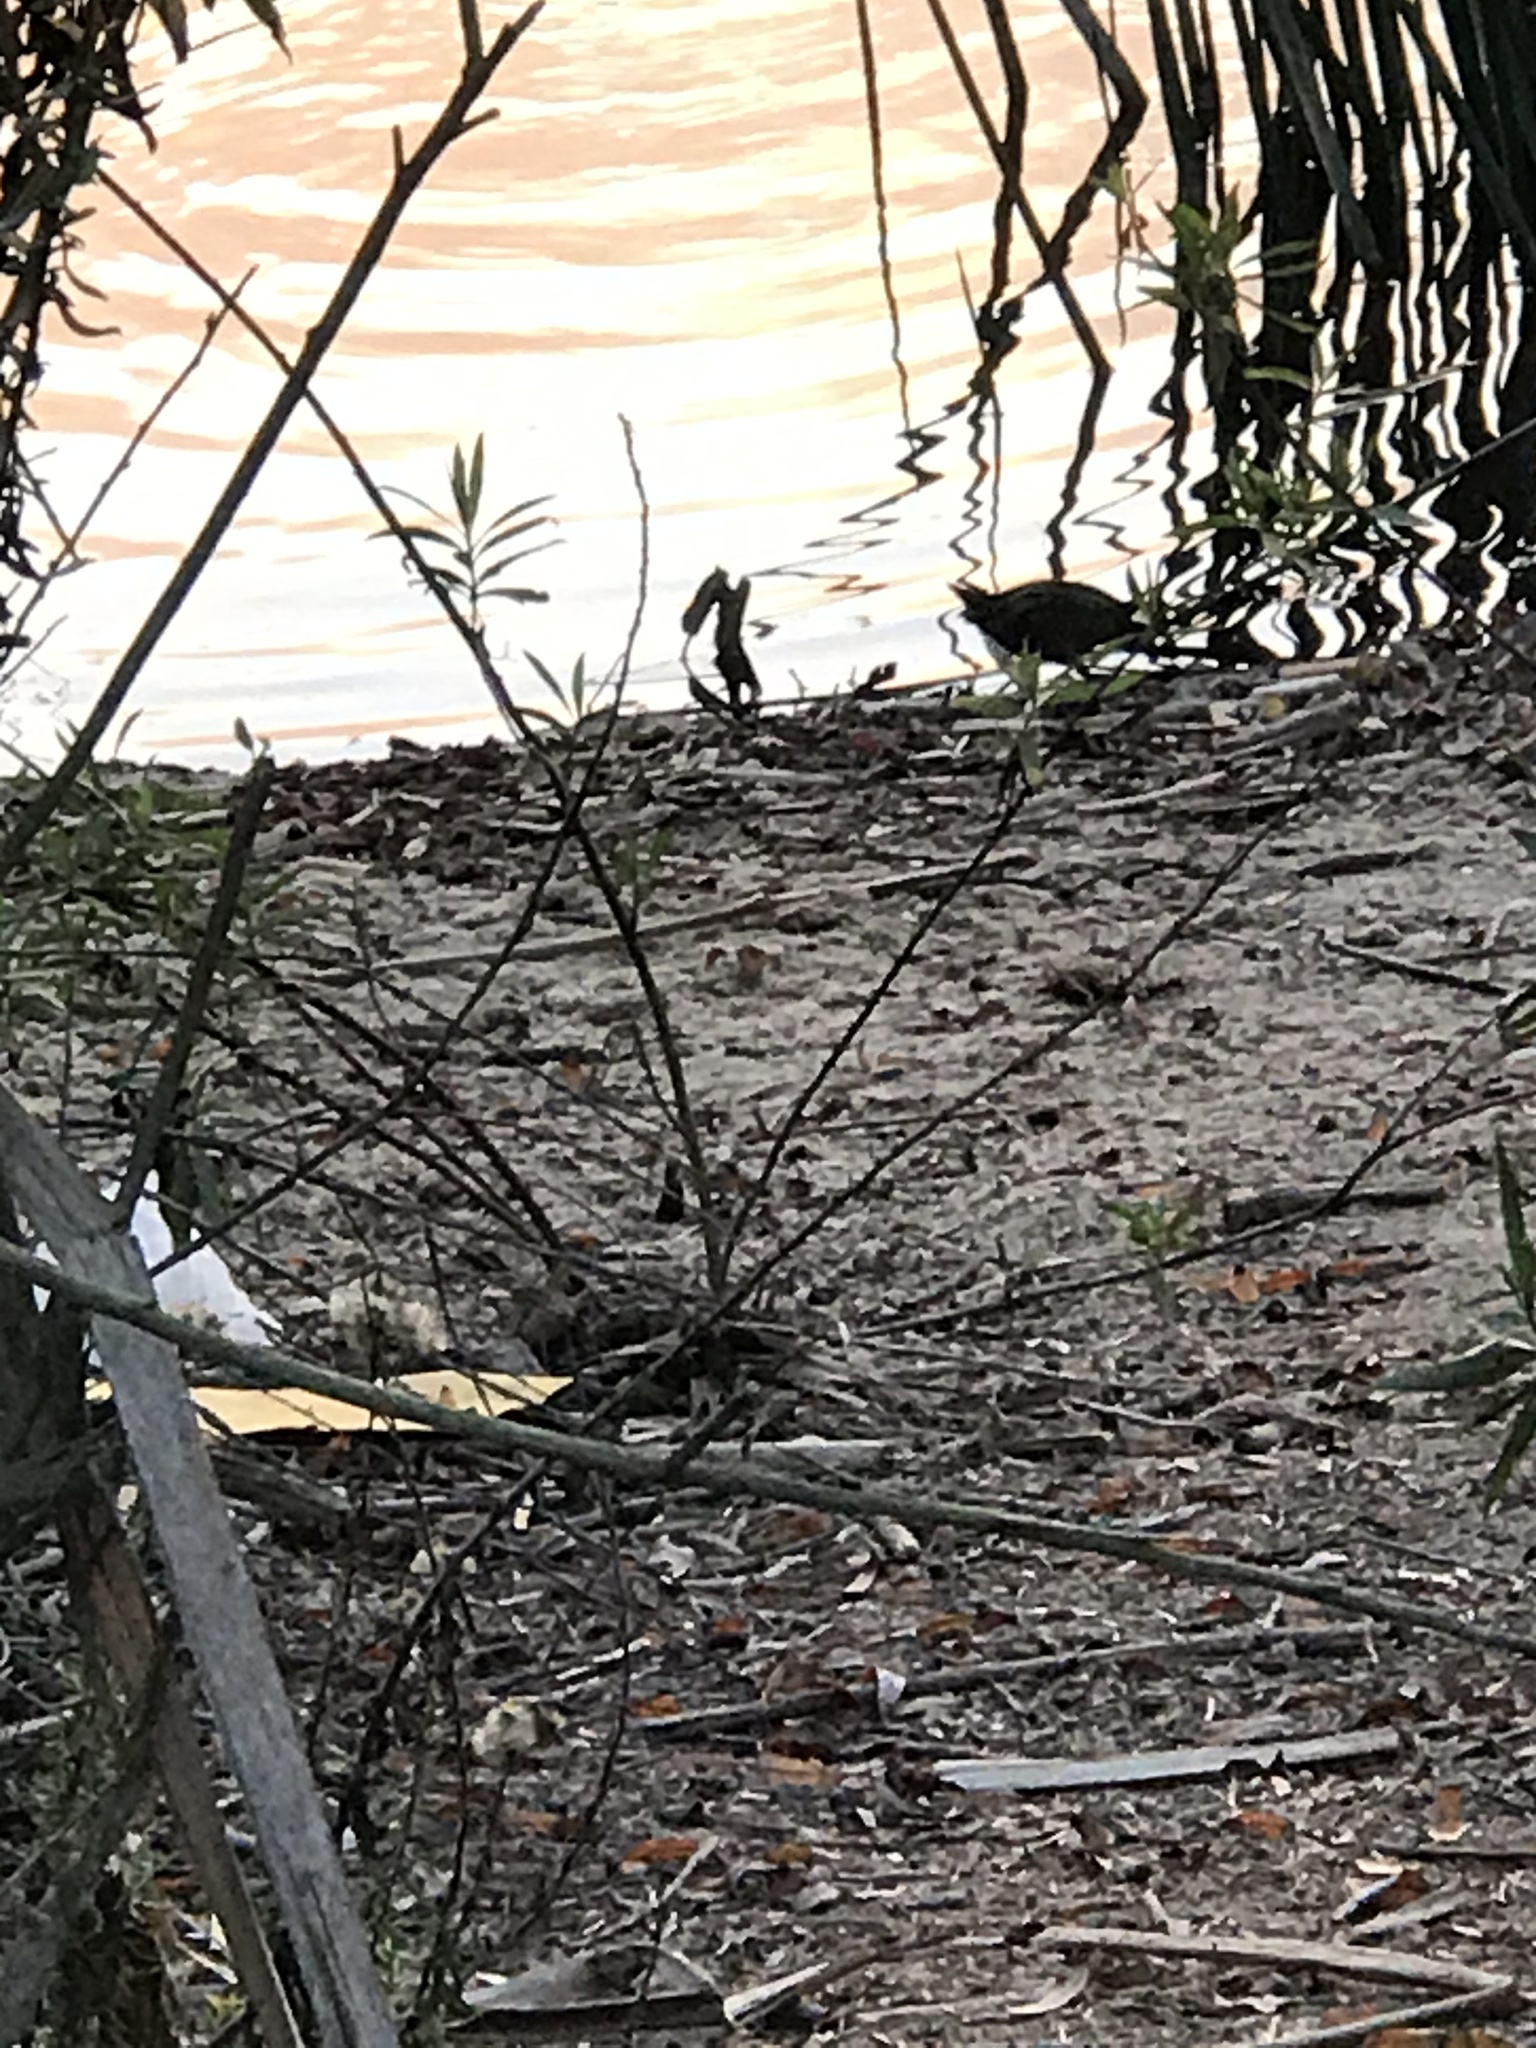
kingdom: Animalia
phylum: Chordata
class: Aves
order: Gruiformes
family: Rallidae
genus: Porzana
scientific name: Porzana carolina
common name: Sora
